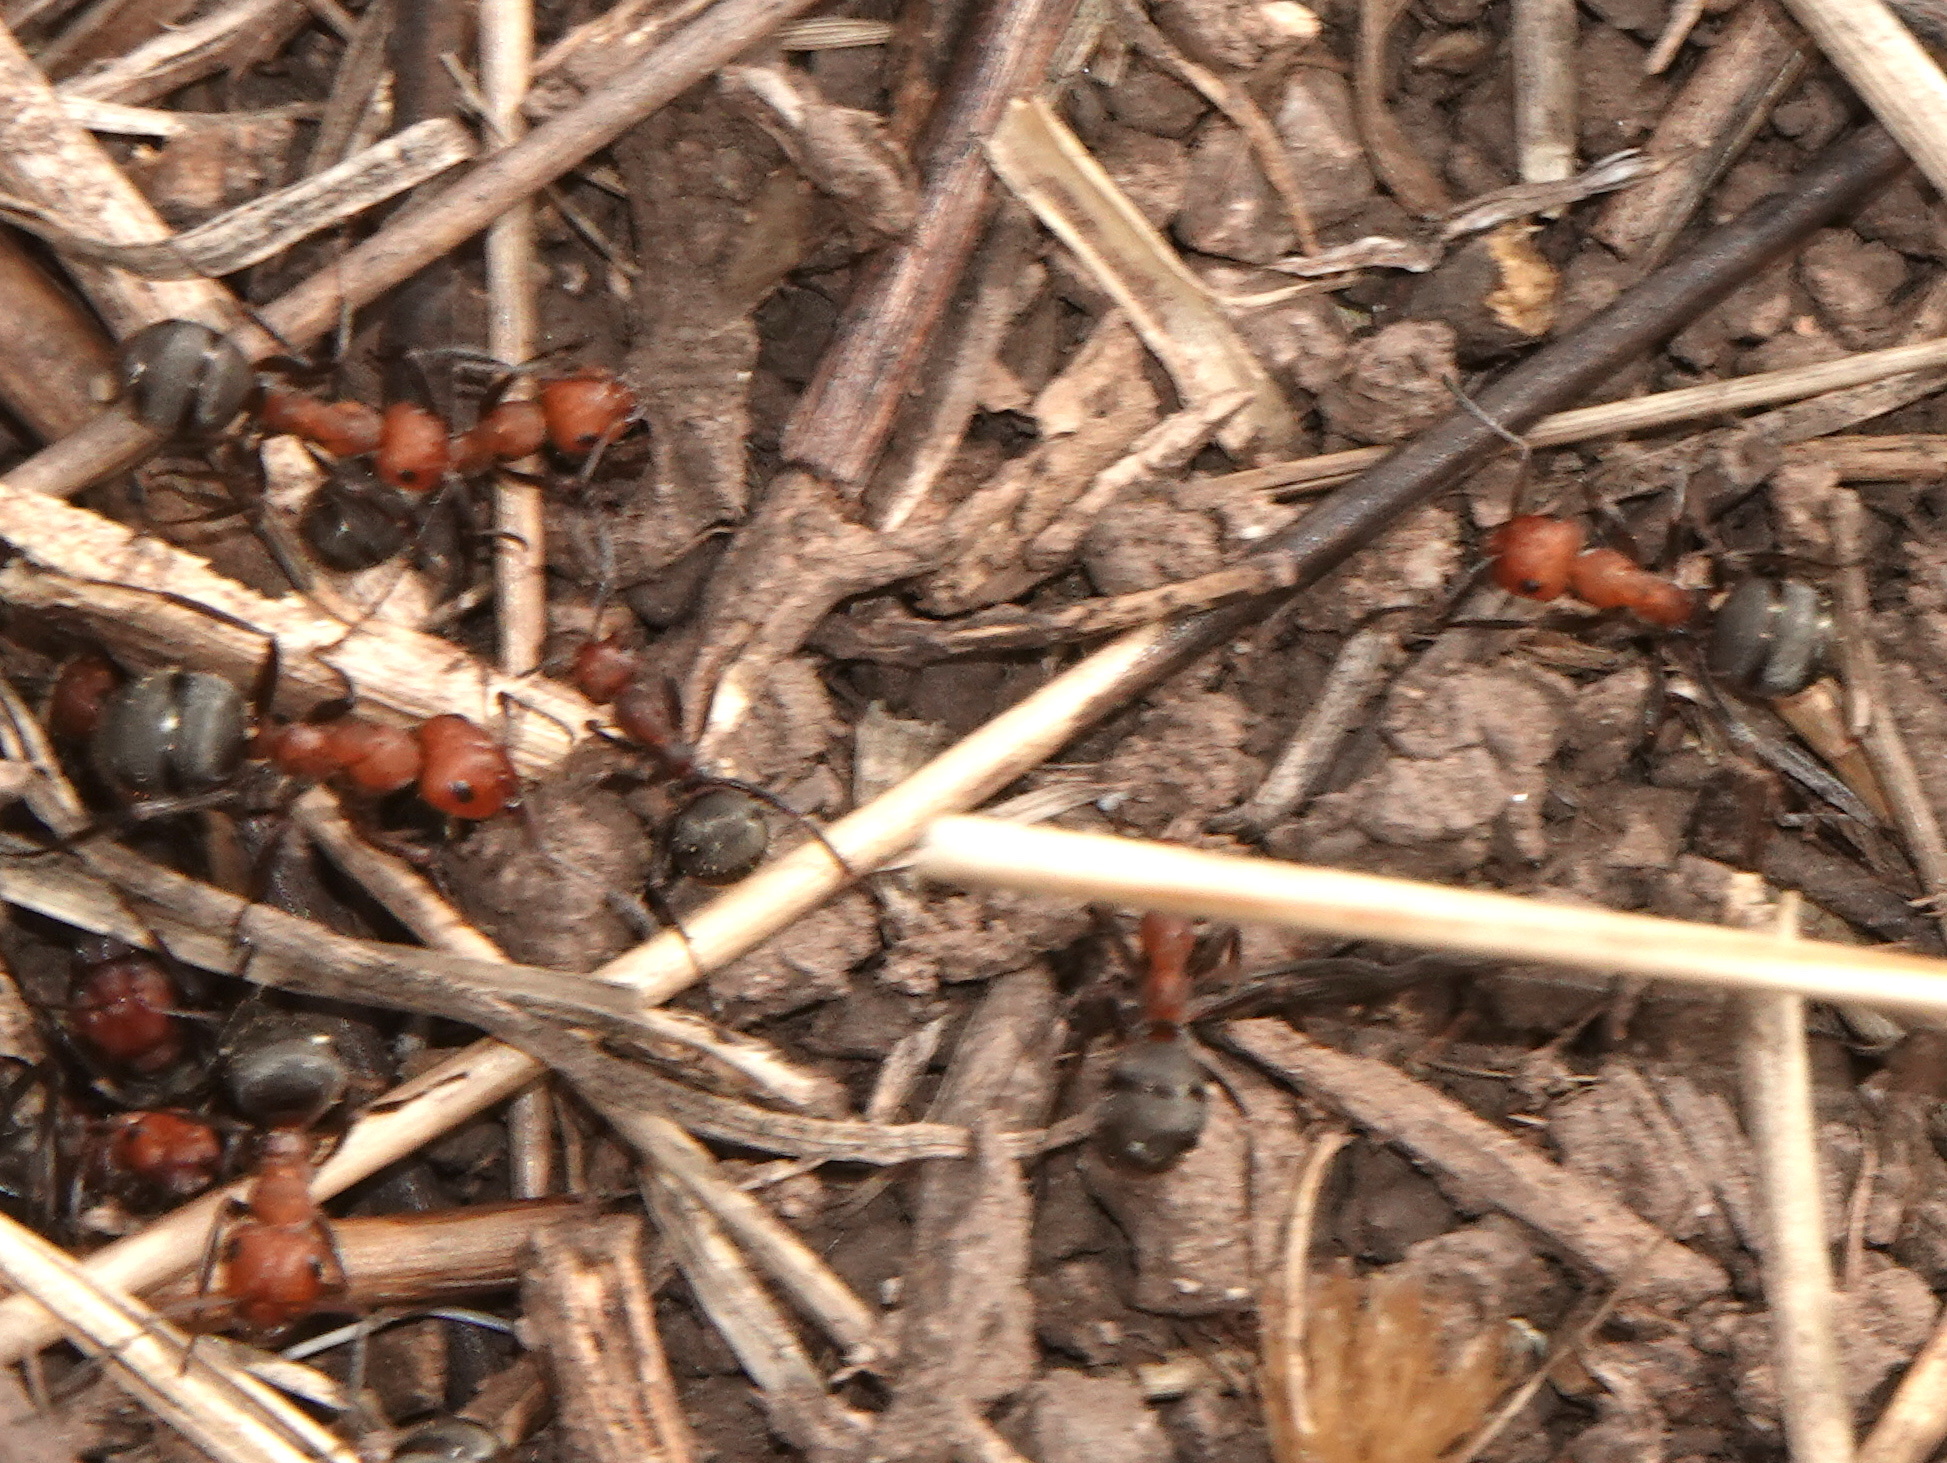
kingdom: Animalia
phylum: Arthropoda
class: Insecta
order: Hymenoptera
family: Formicidae
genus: Formica
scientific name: Formica obscuripes
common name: Western thatching ant
